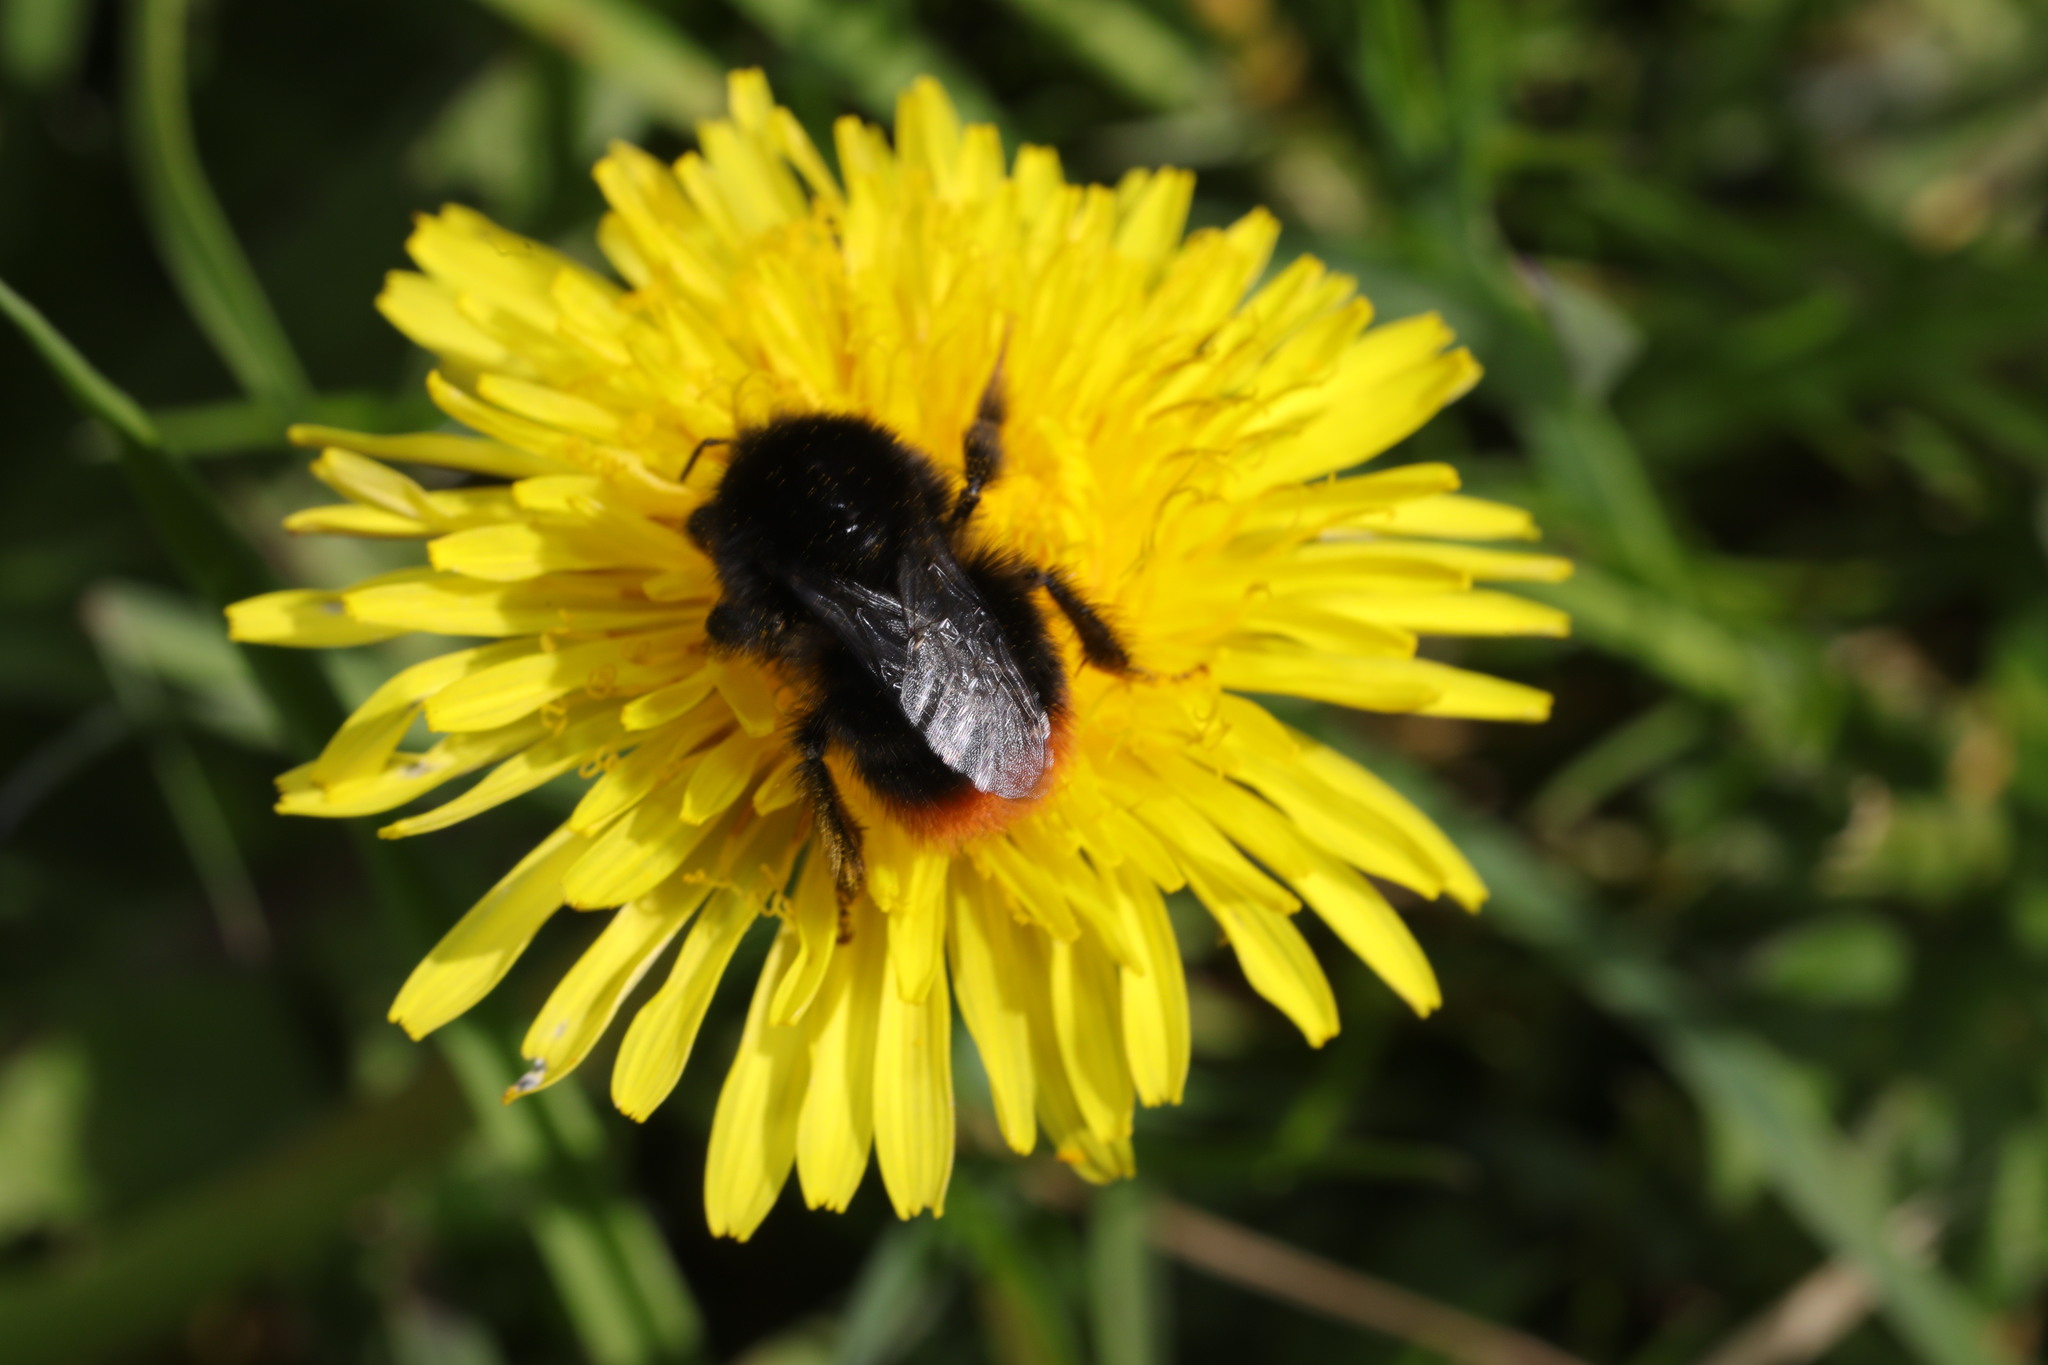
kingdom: Animalia
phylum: Arthropoda
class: Insecta
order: Hymenoptera
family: Apidae
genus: Bombus
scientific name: Bombus lapidarius
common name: Large red-tailed humble-bee
